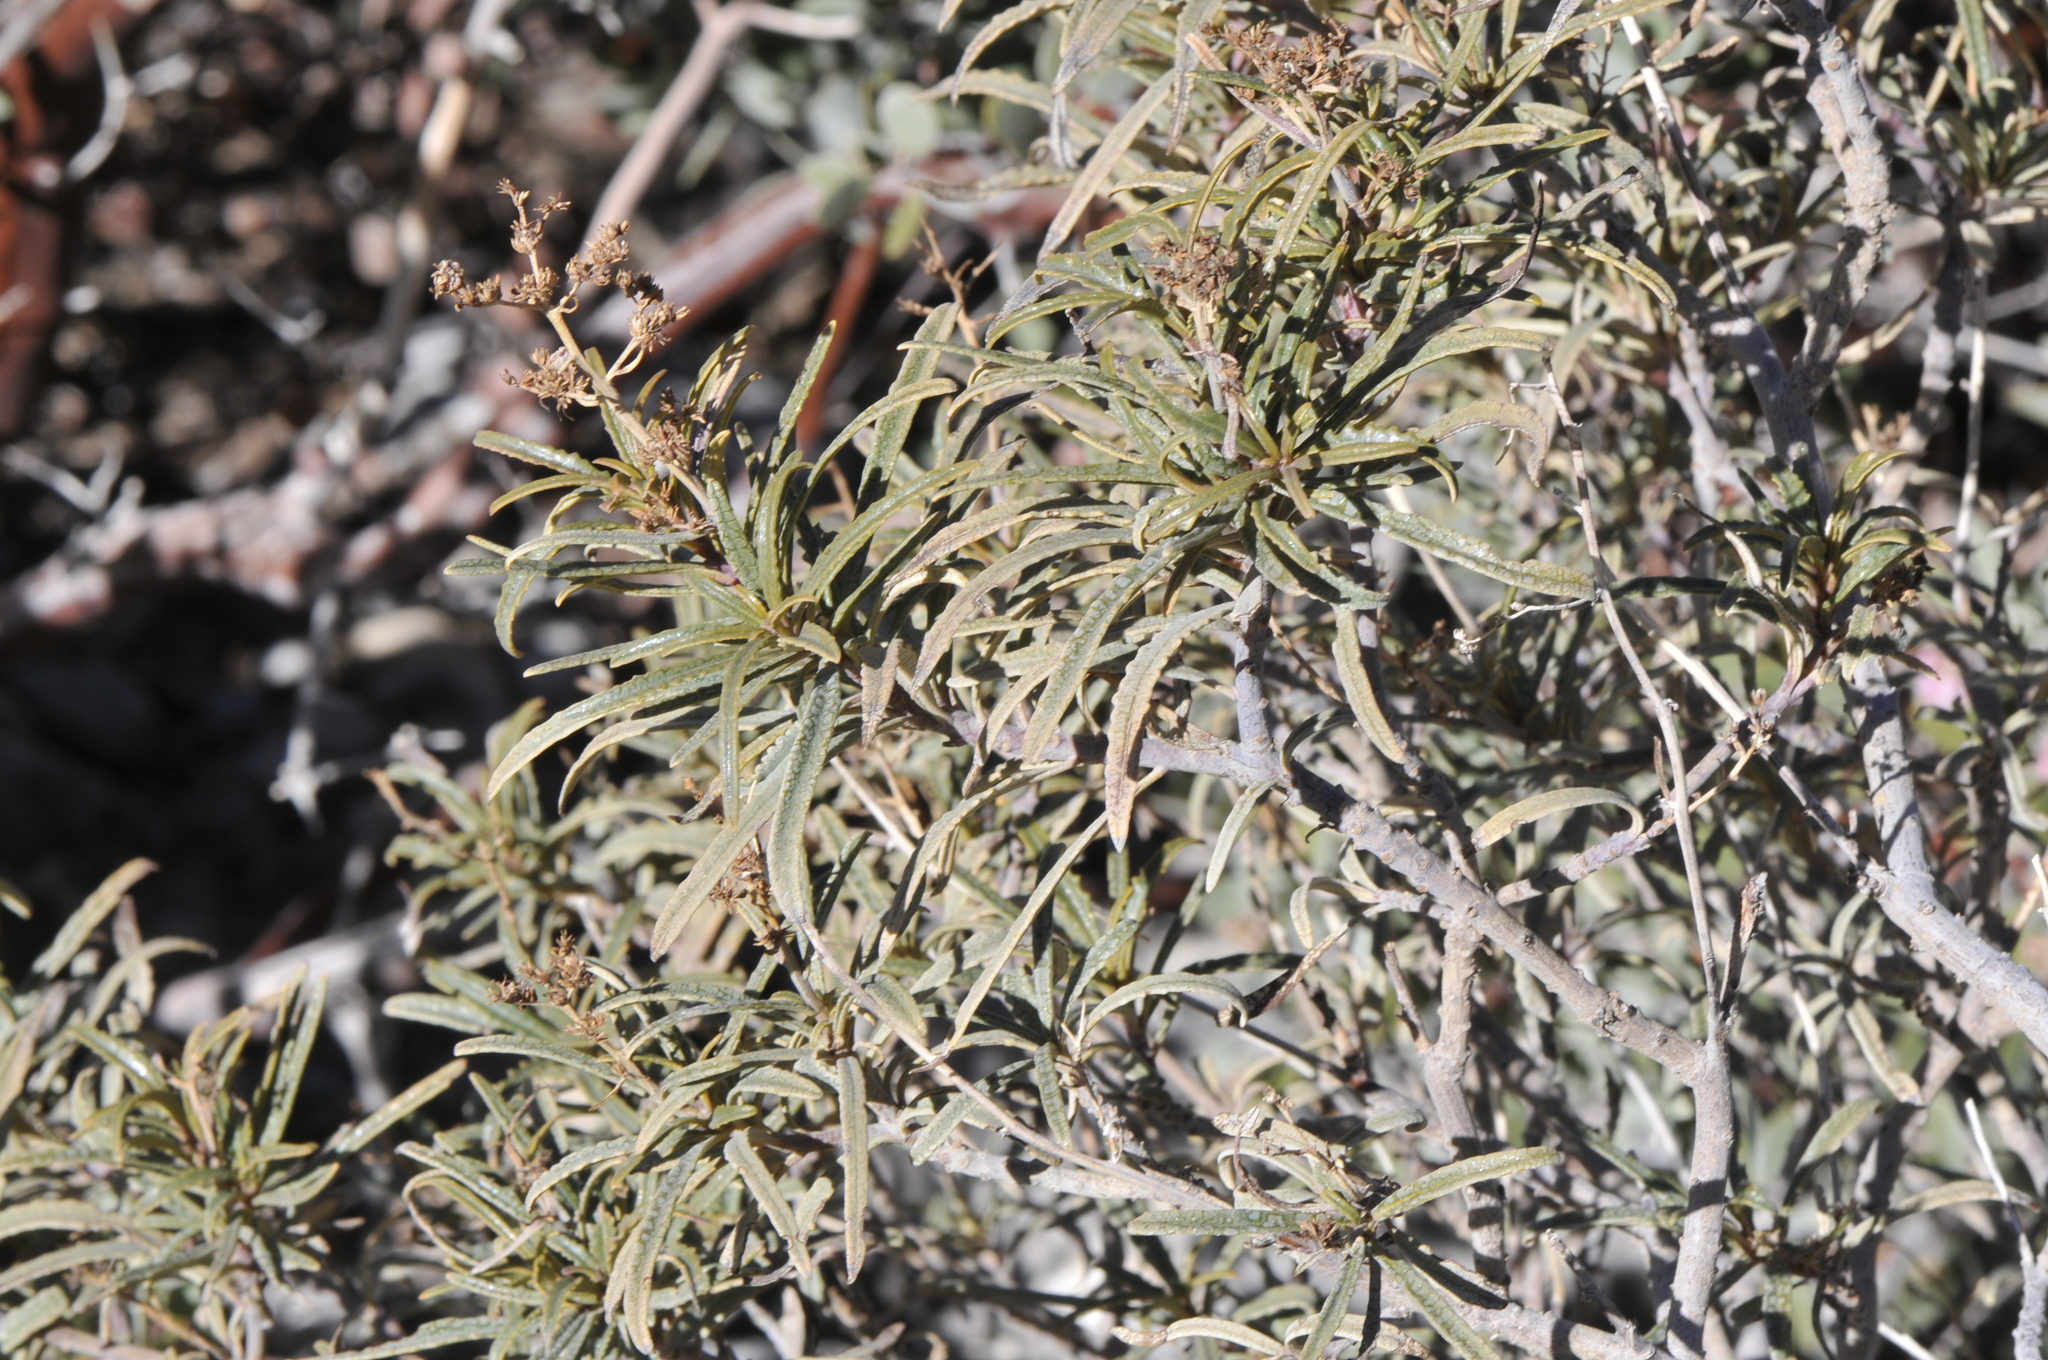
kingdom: Plantae
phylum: Tracheophyta
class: Magnoliopsida
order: Boraginales
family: Namaceae
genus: Eriodictyon
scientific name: Eriodictyon angustifolium
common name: Narrow-leaf yerba santa
